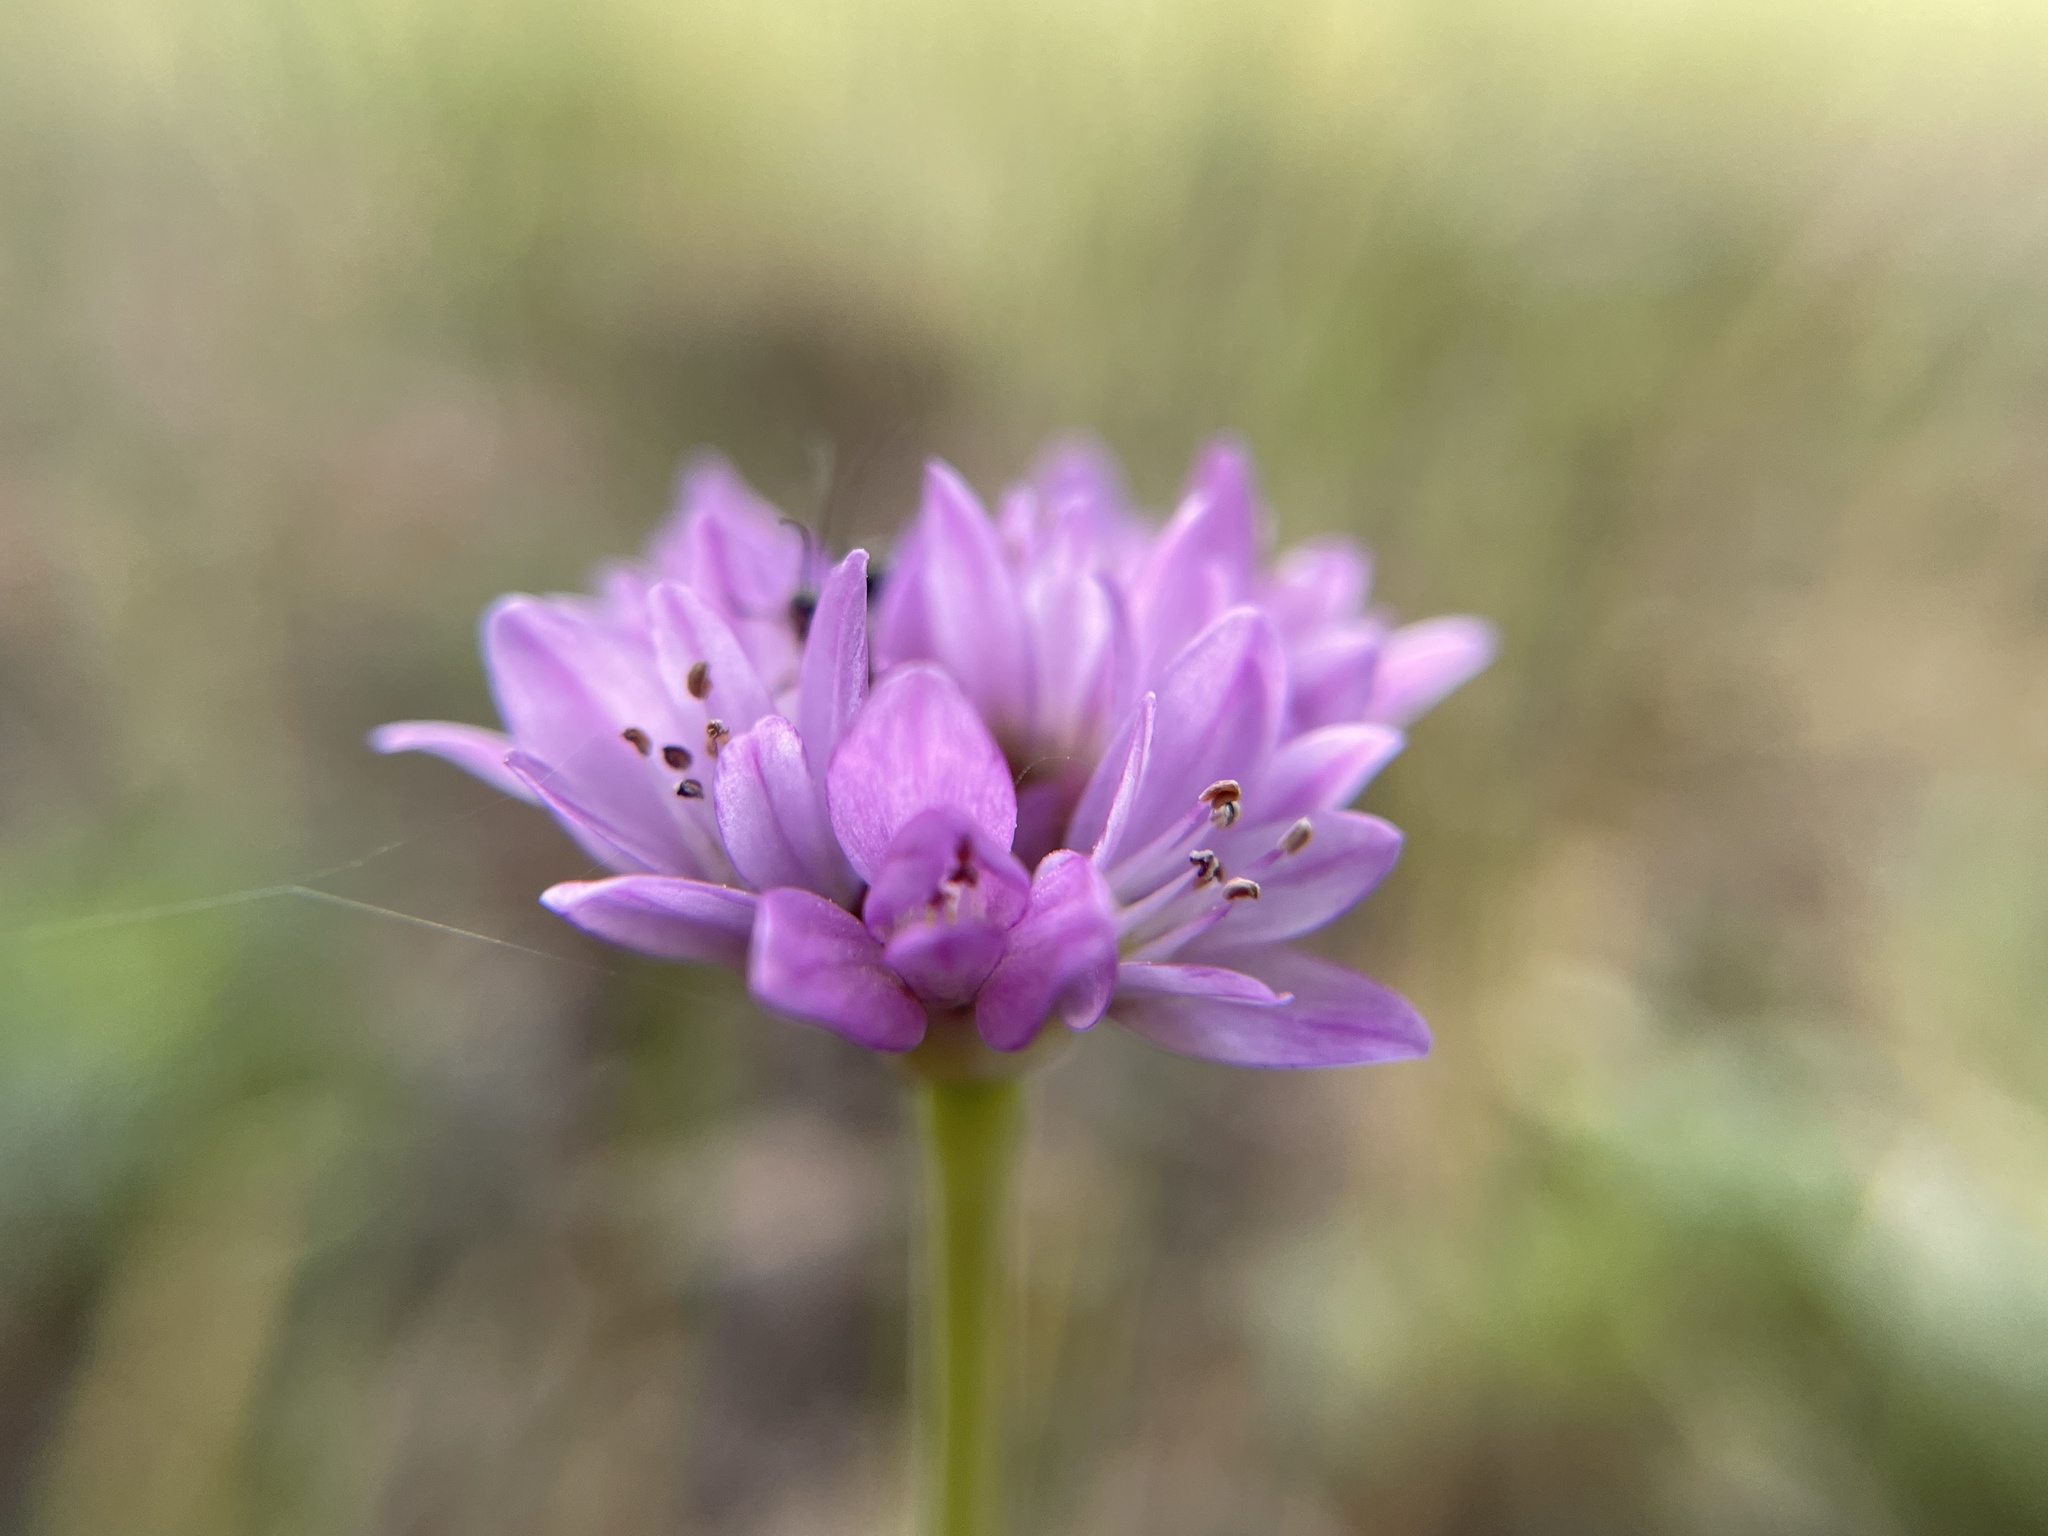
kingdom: Plantae
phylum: Tracheophyta
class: Liliopsida
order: Asparagales
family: Amaryllidaceae
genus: Allium
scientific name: Allium serra
